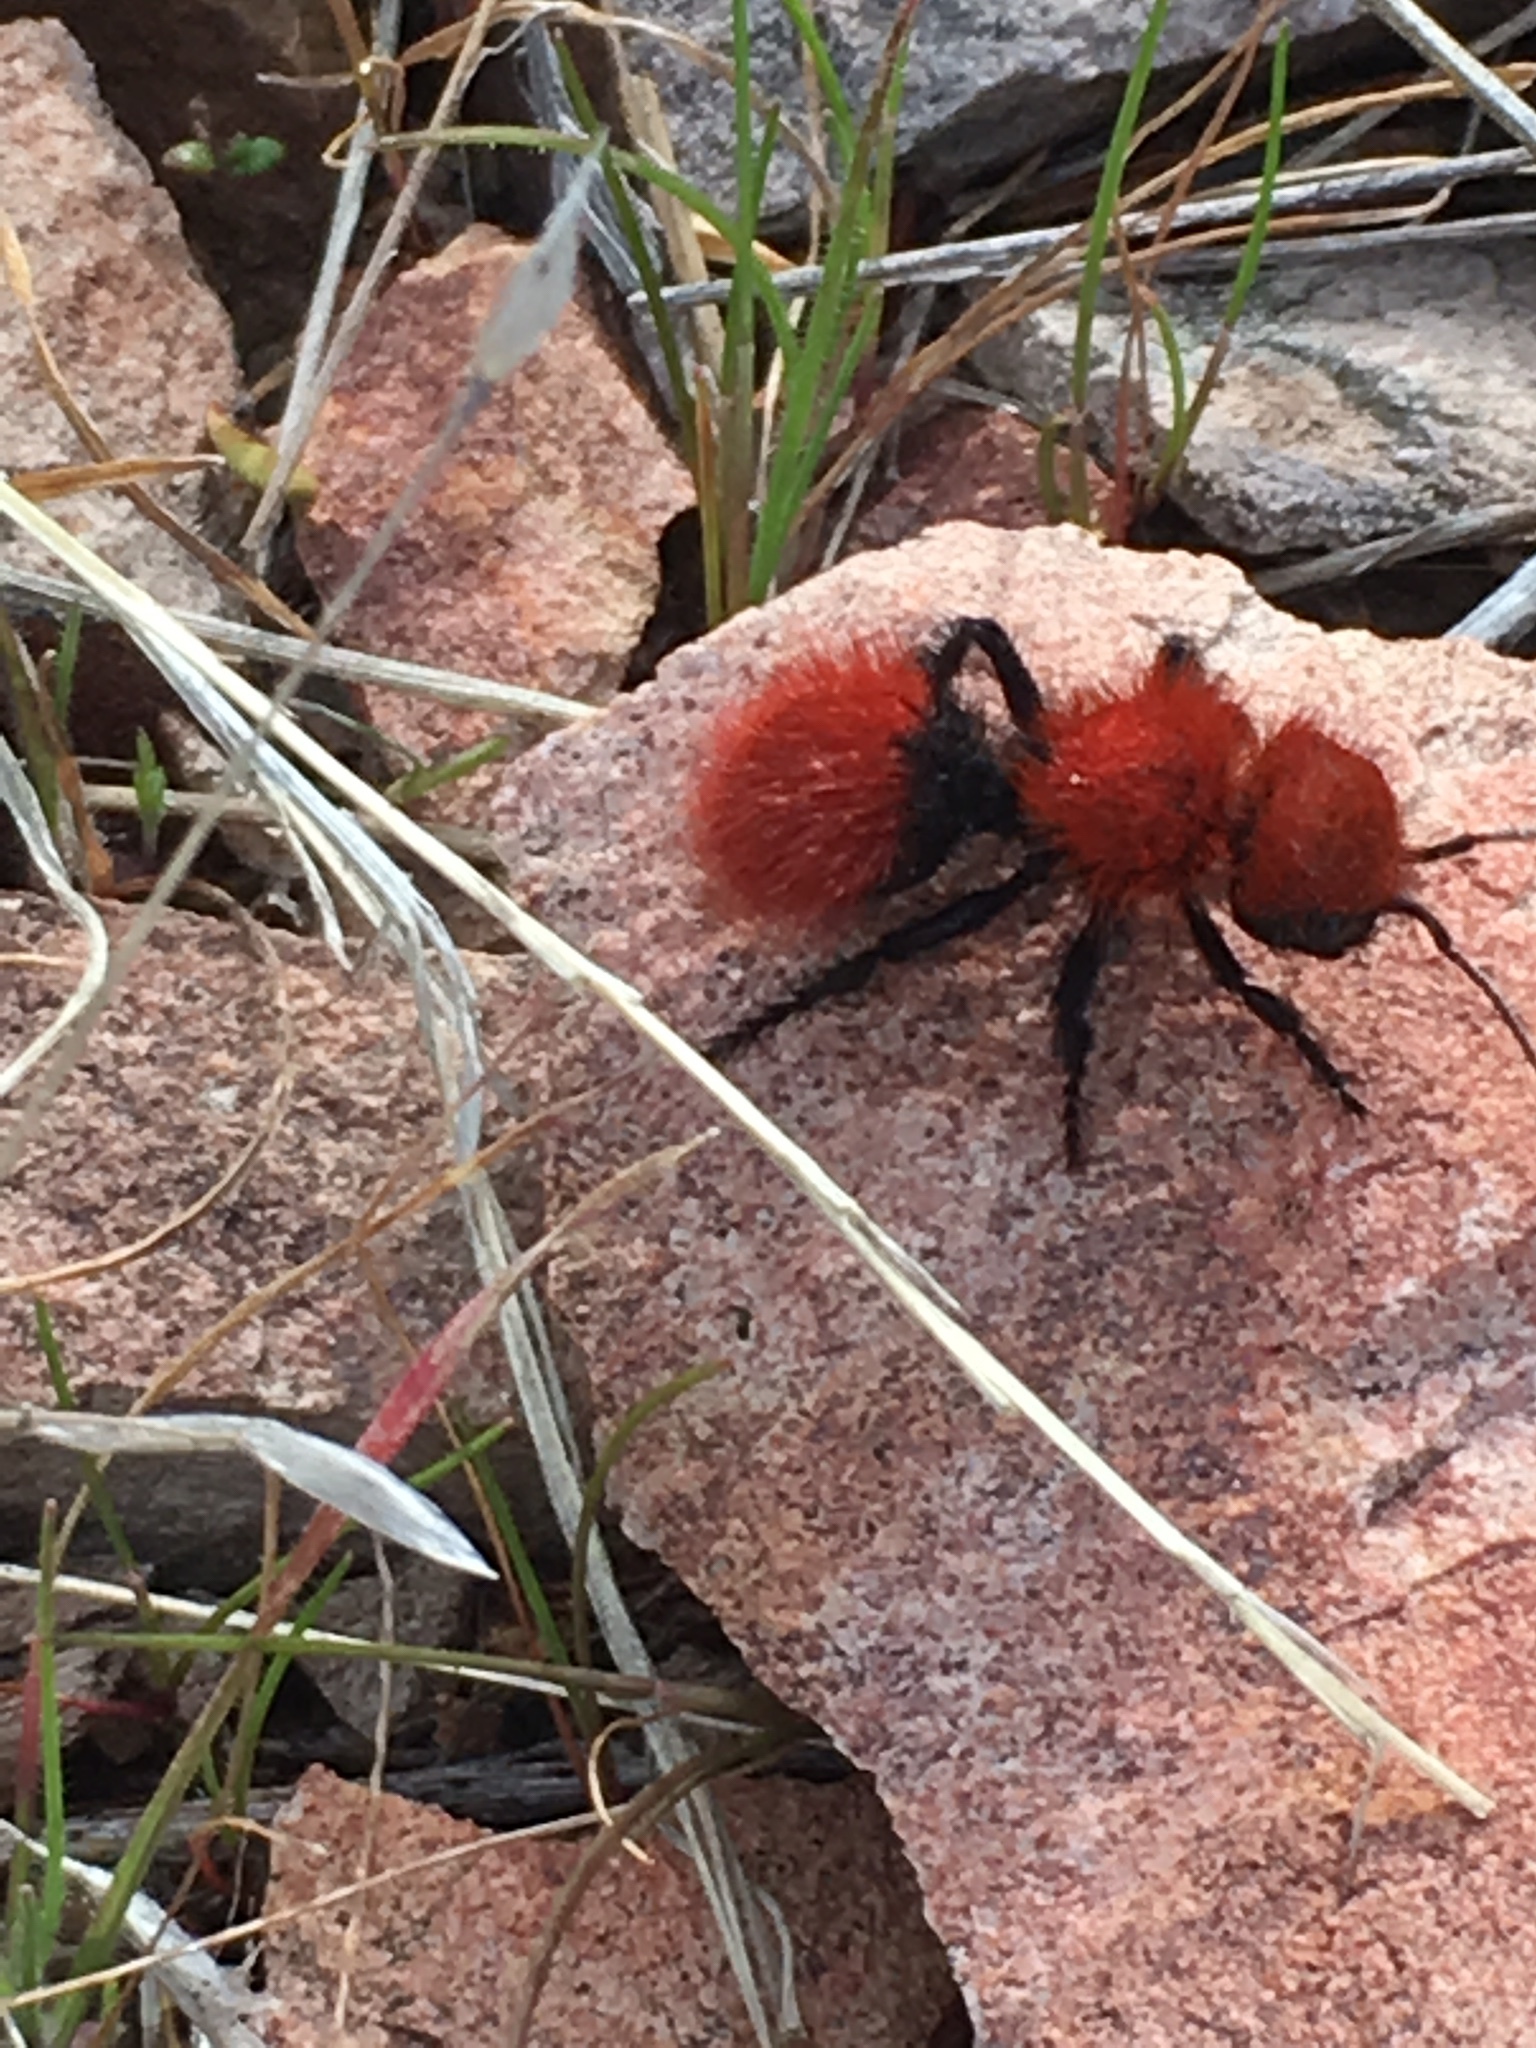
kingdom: Animalia
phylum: Arthropoda
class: Insecta
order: Hymenoptera
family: Mutillidae
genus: Dasymutilla
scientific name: Dasymutilla
